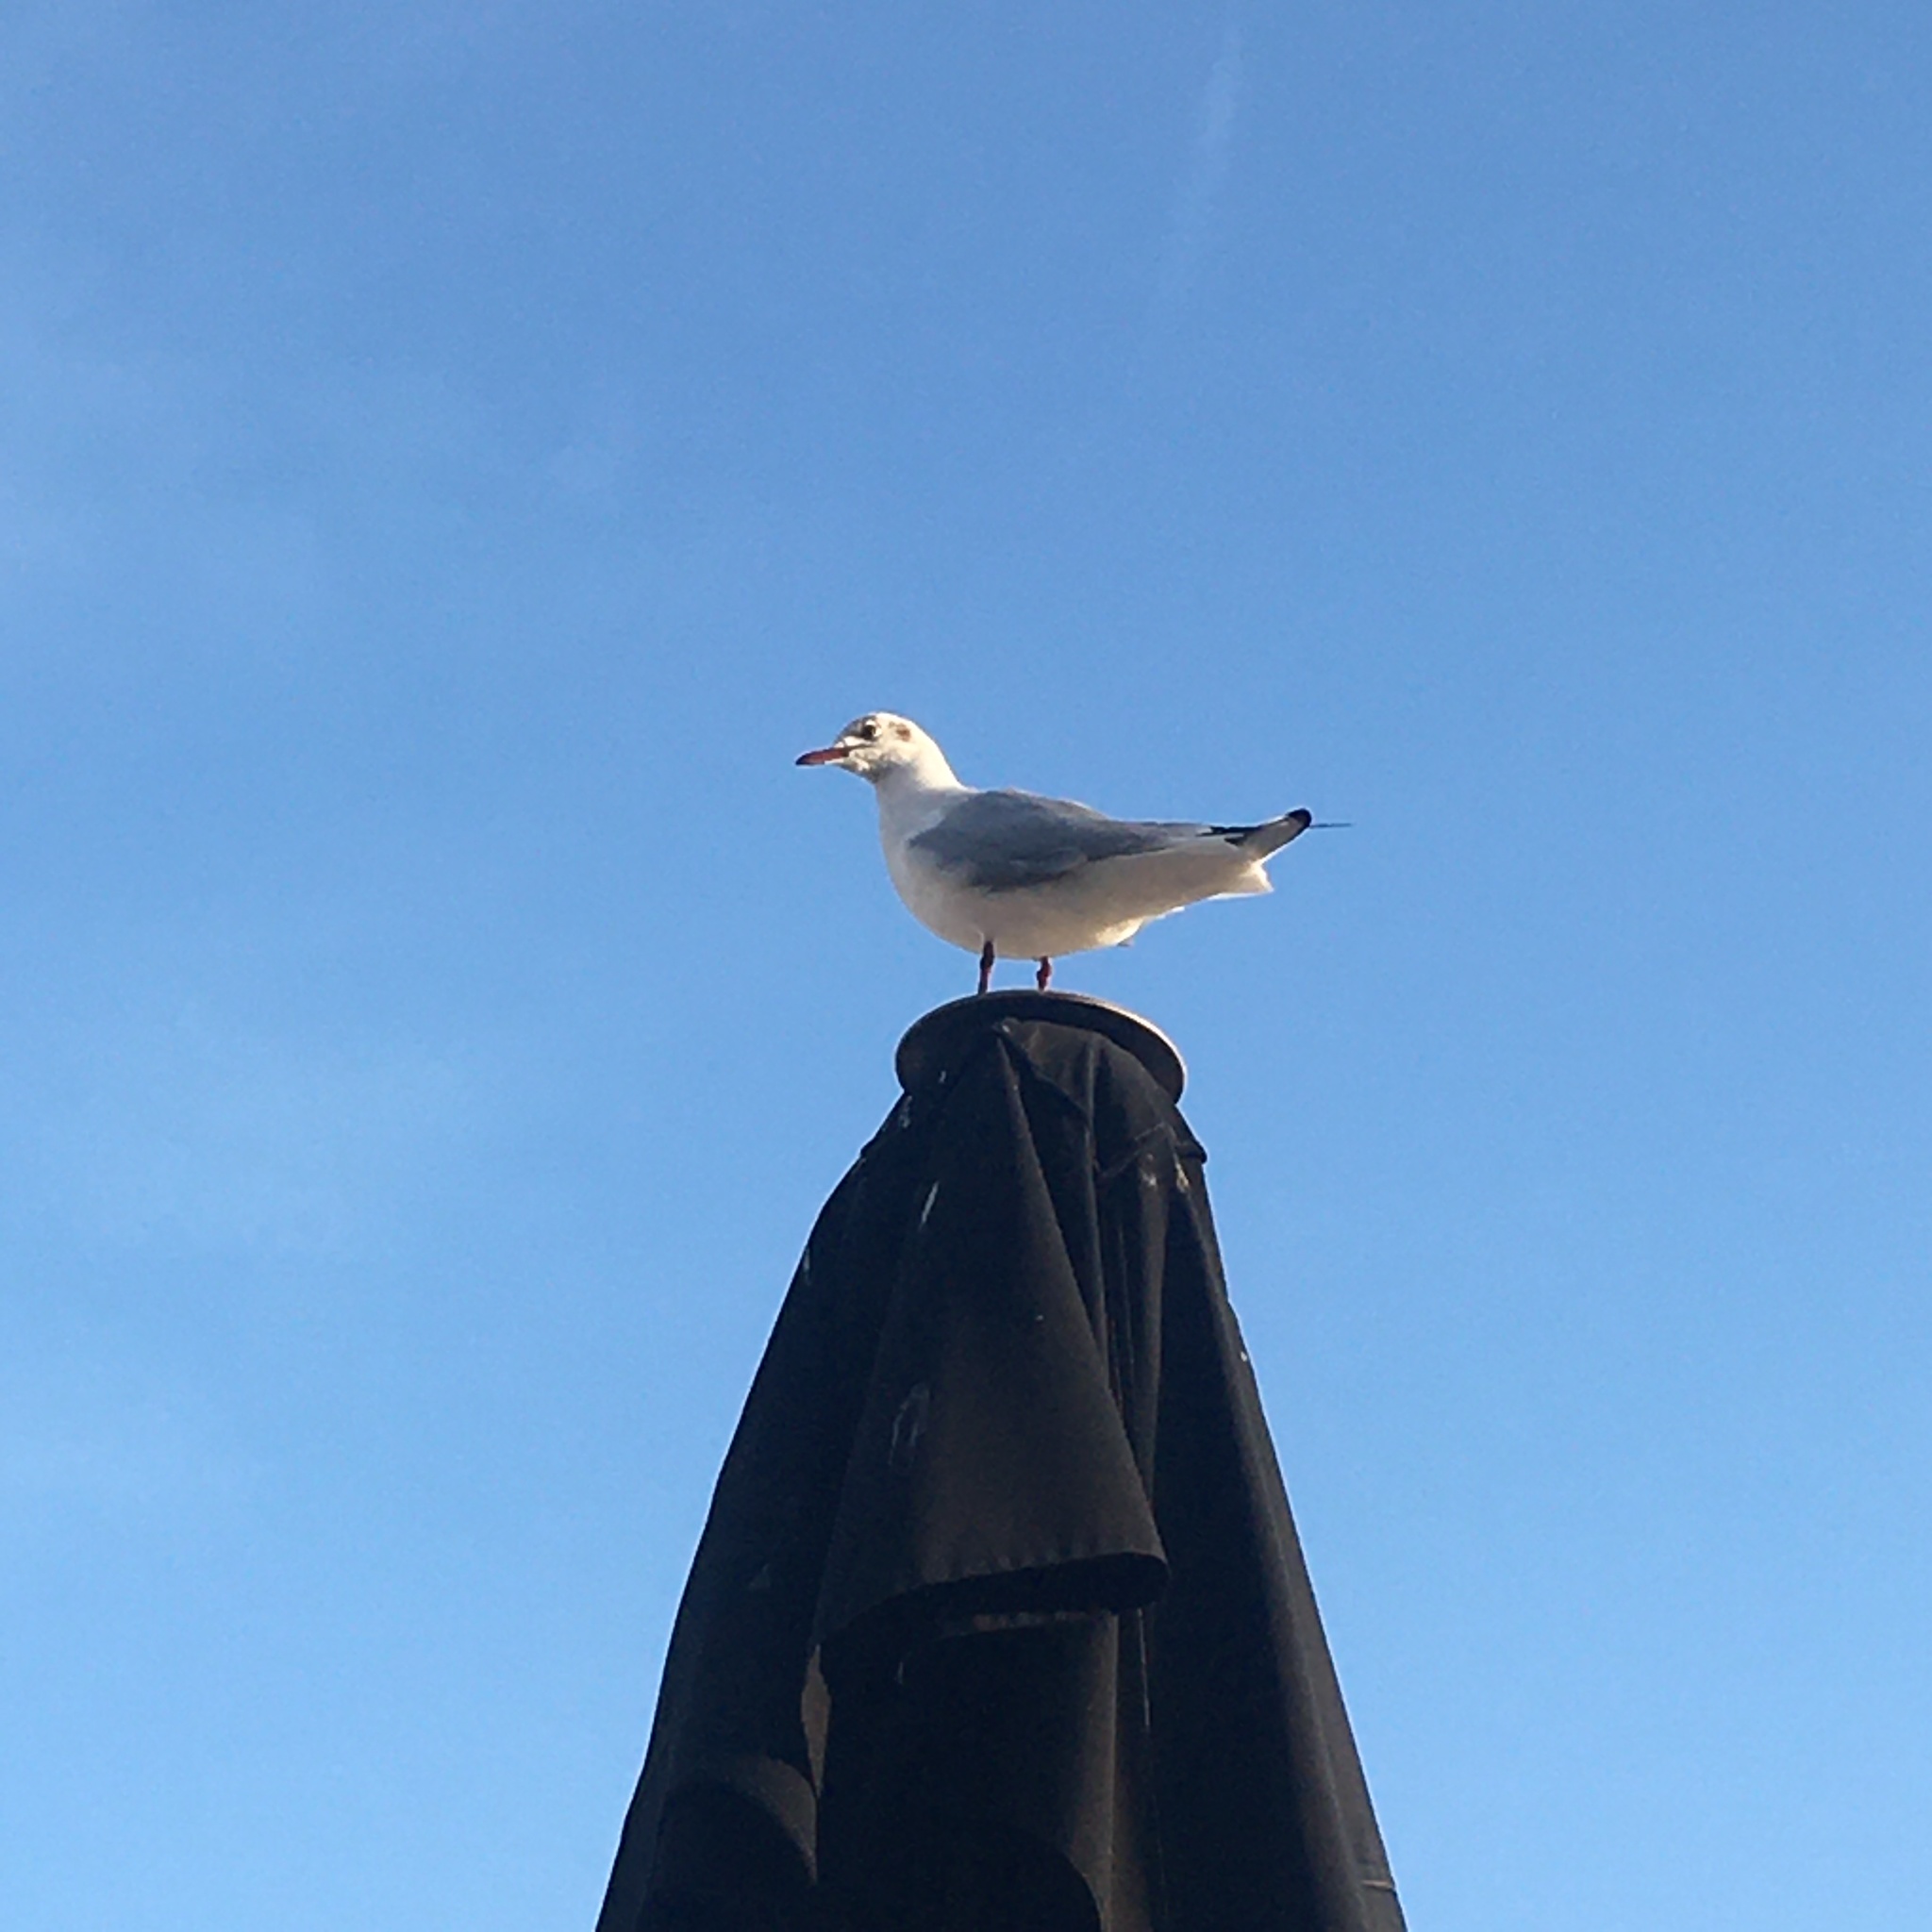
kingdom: Animalia
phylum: Chordata
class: Aves
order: Charadriiformes
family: Laridae
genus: Chroicocephalus
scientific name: Chroicocephalus ridibundus
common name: Black-headed gull
